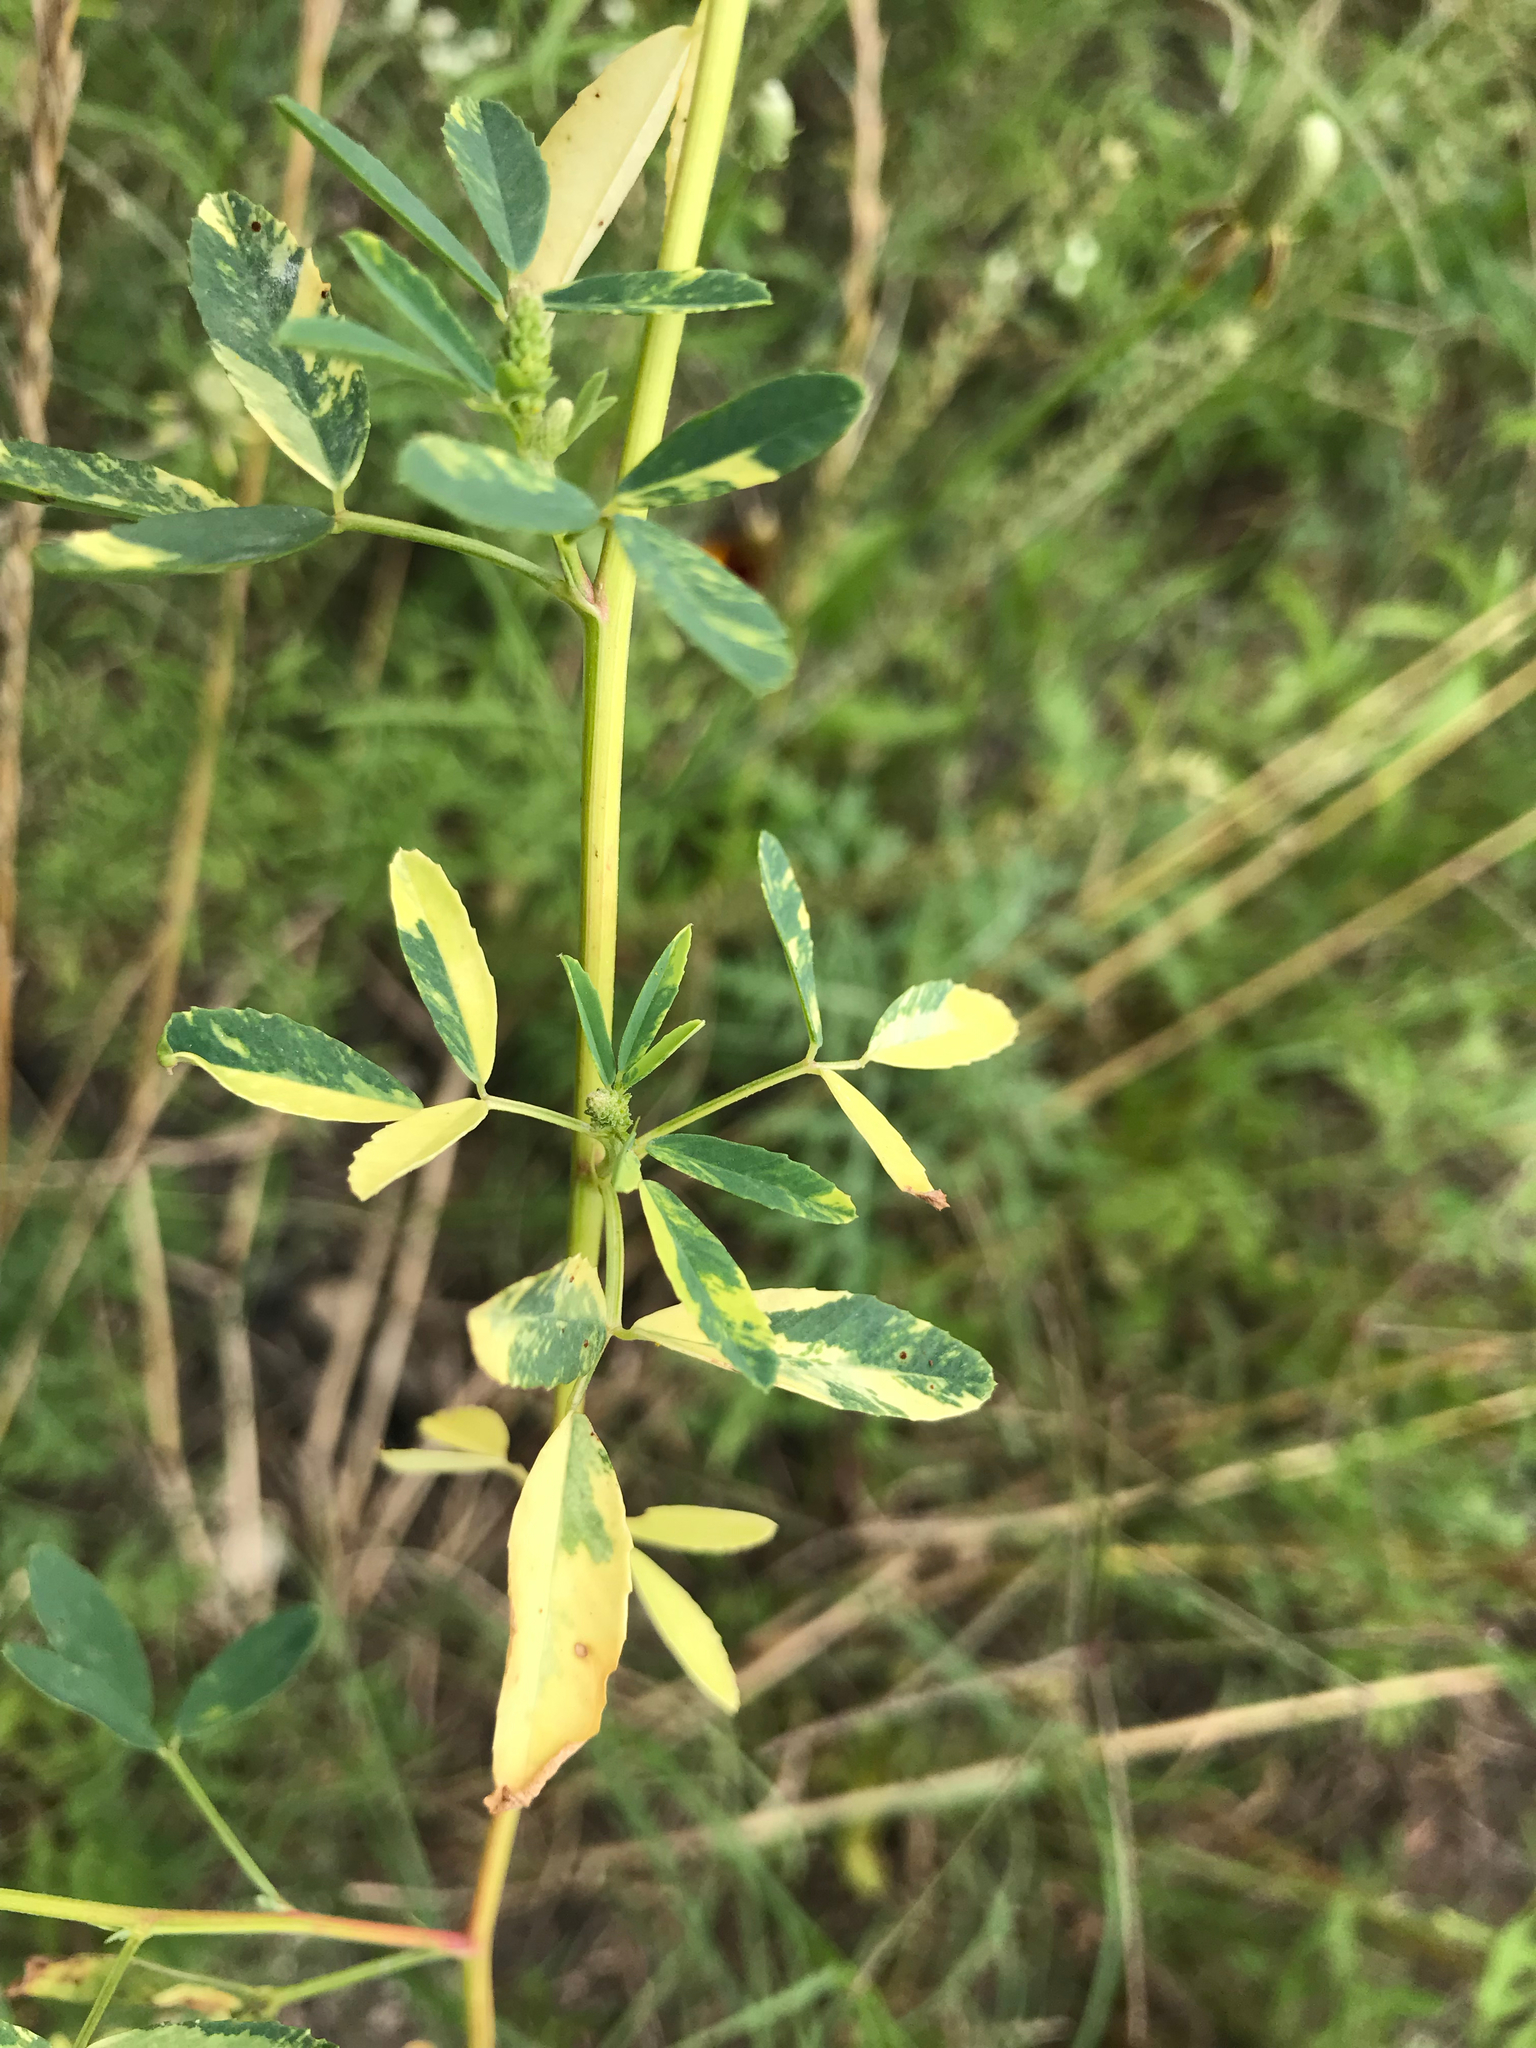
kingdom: Plantae
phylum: Tracheophyta
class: Magnoliopsida
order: Fabales
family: Fabaceae
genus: Melilotus
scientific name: Melilotus albus
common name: White melilot
